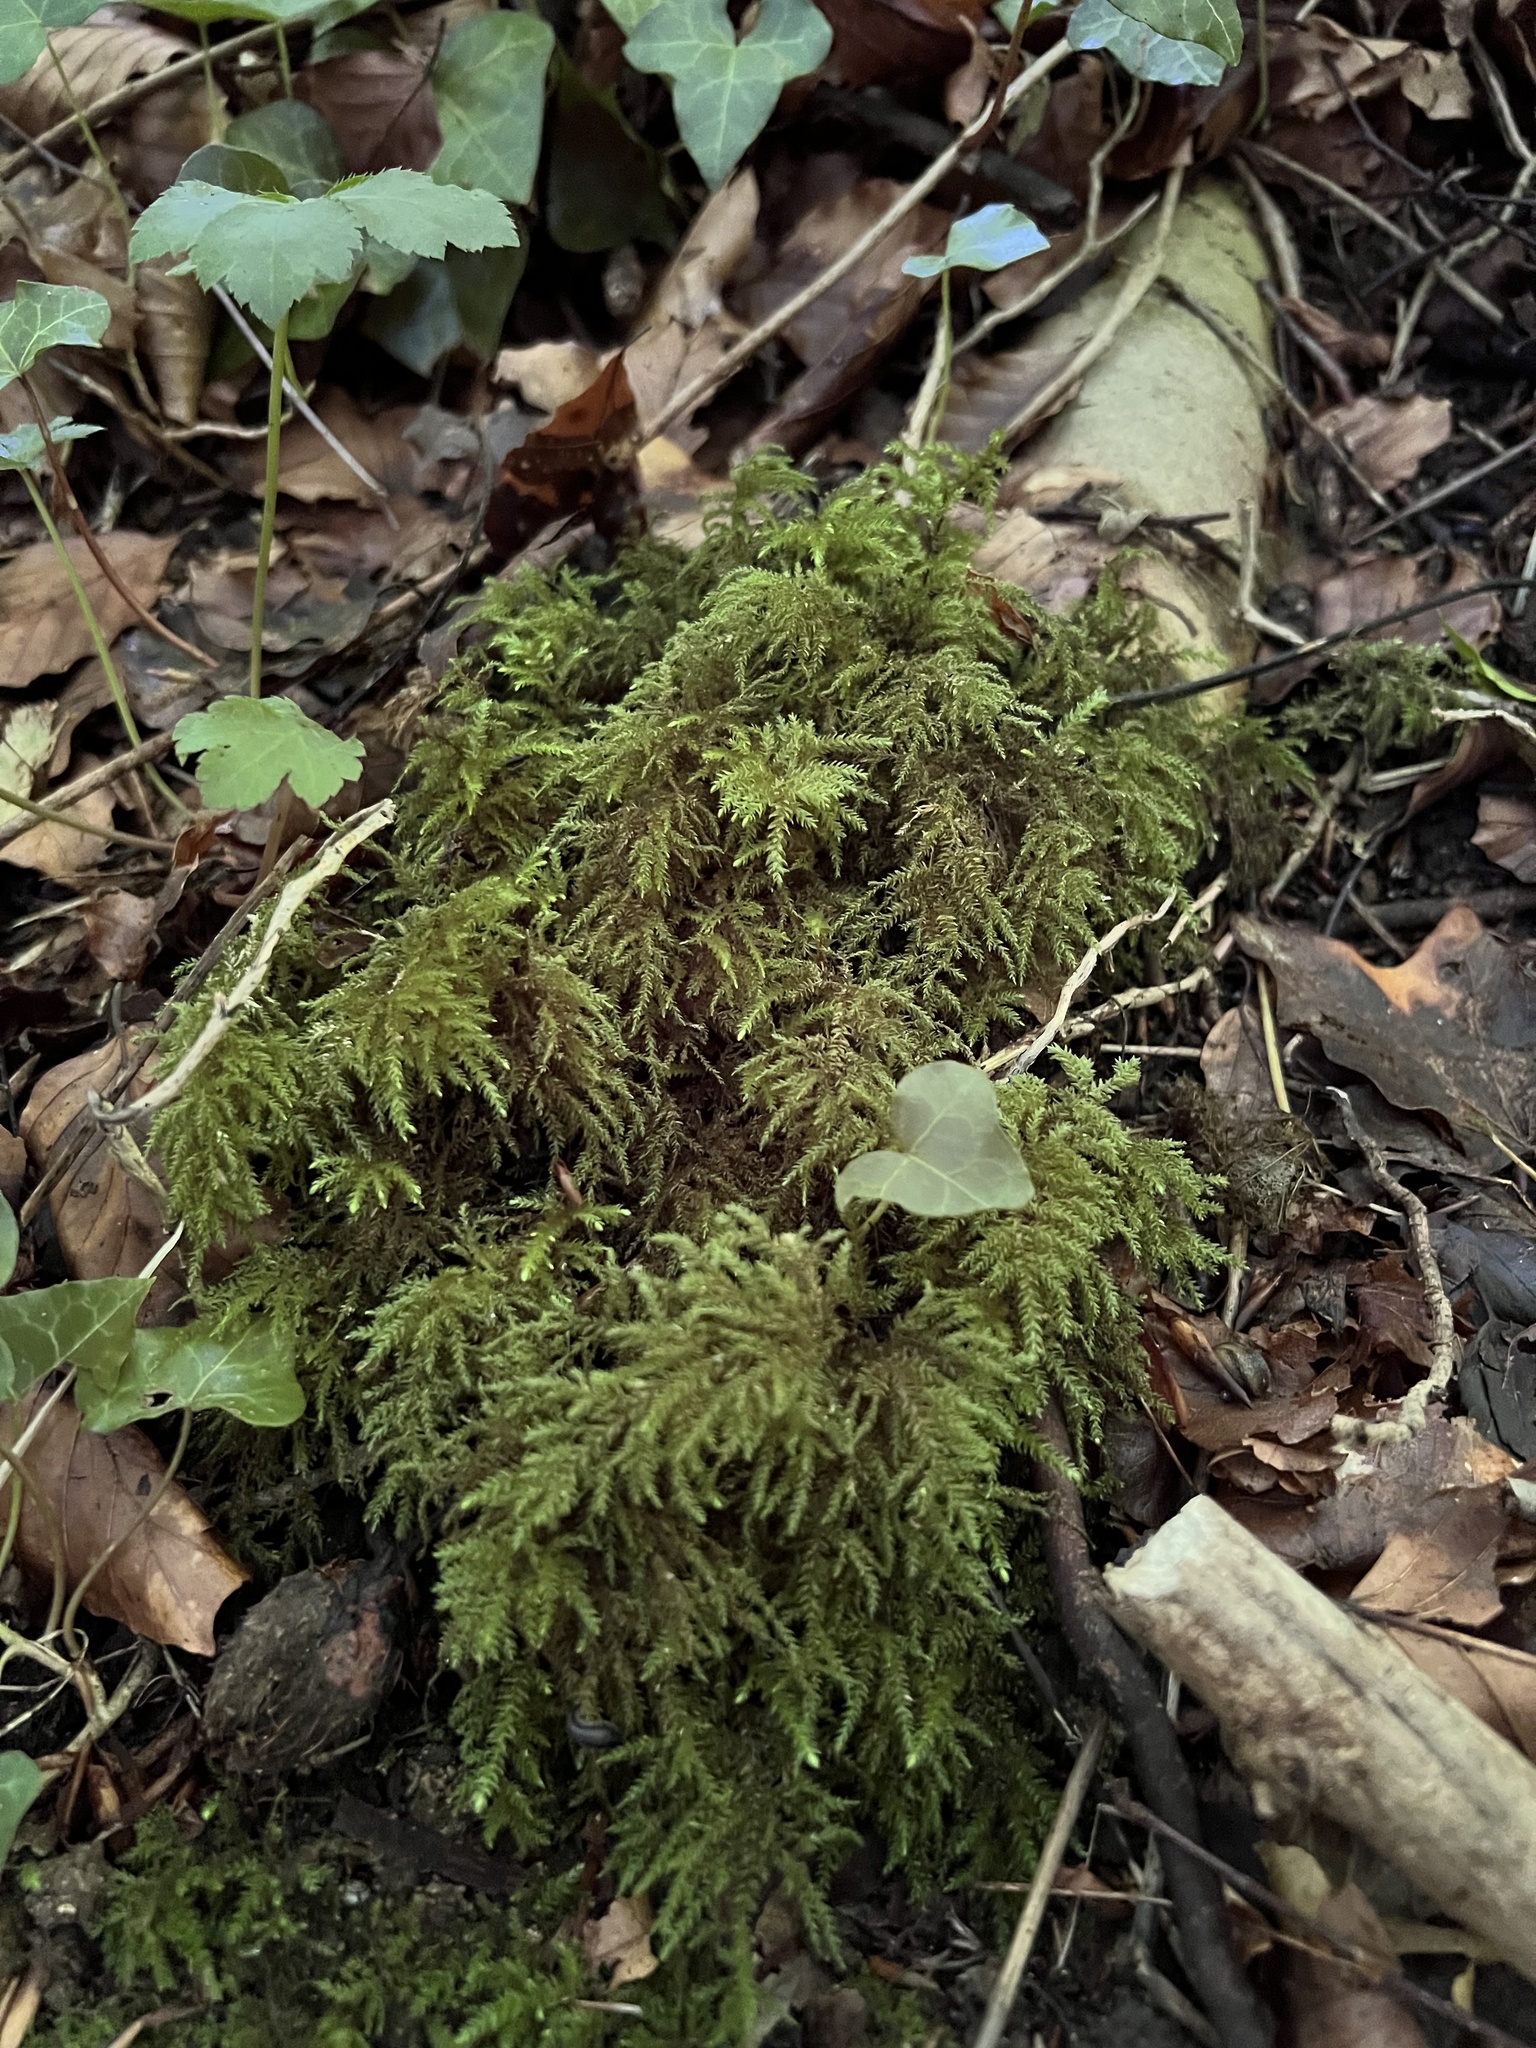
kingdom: Plantae
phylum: Bryophyta
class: Bryopsida
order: Hypnales
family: Neckeraceae
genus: Thamnobryum
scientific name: Thamnobryum alopecurum
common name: Fox-tail feather-moss
